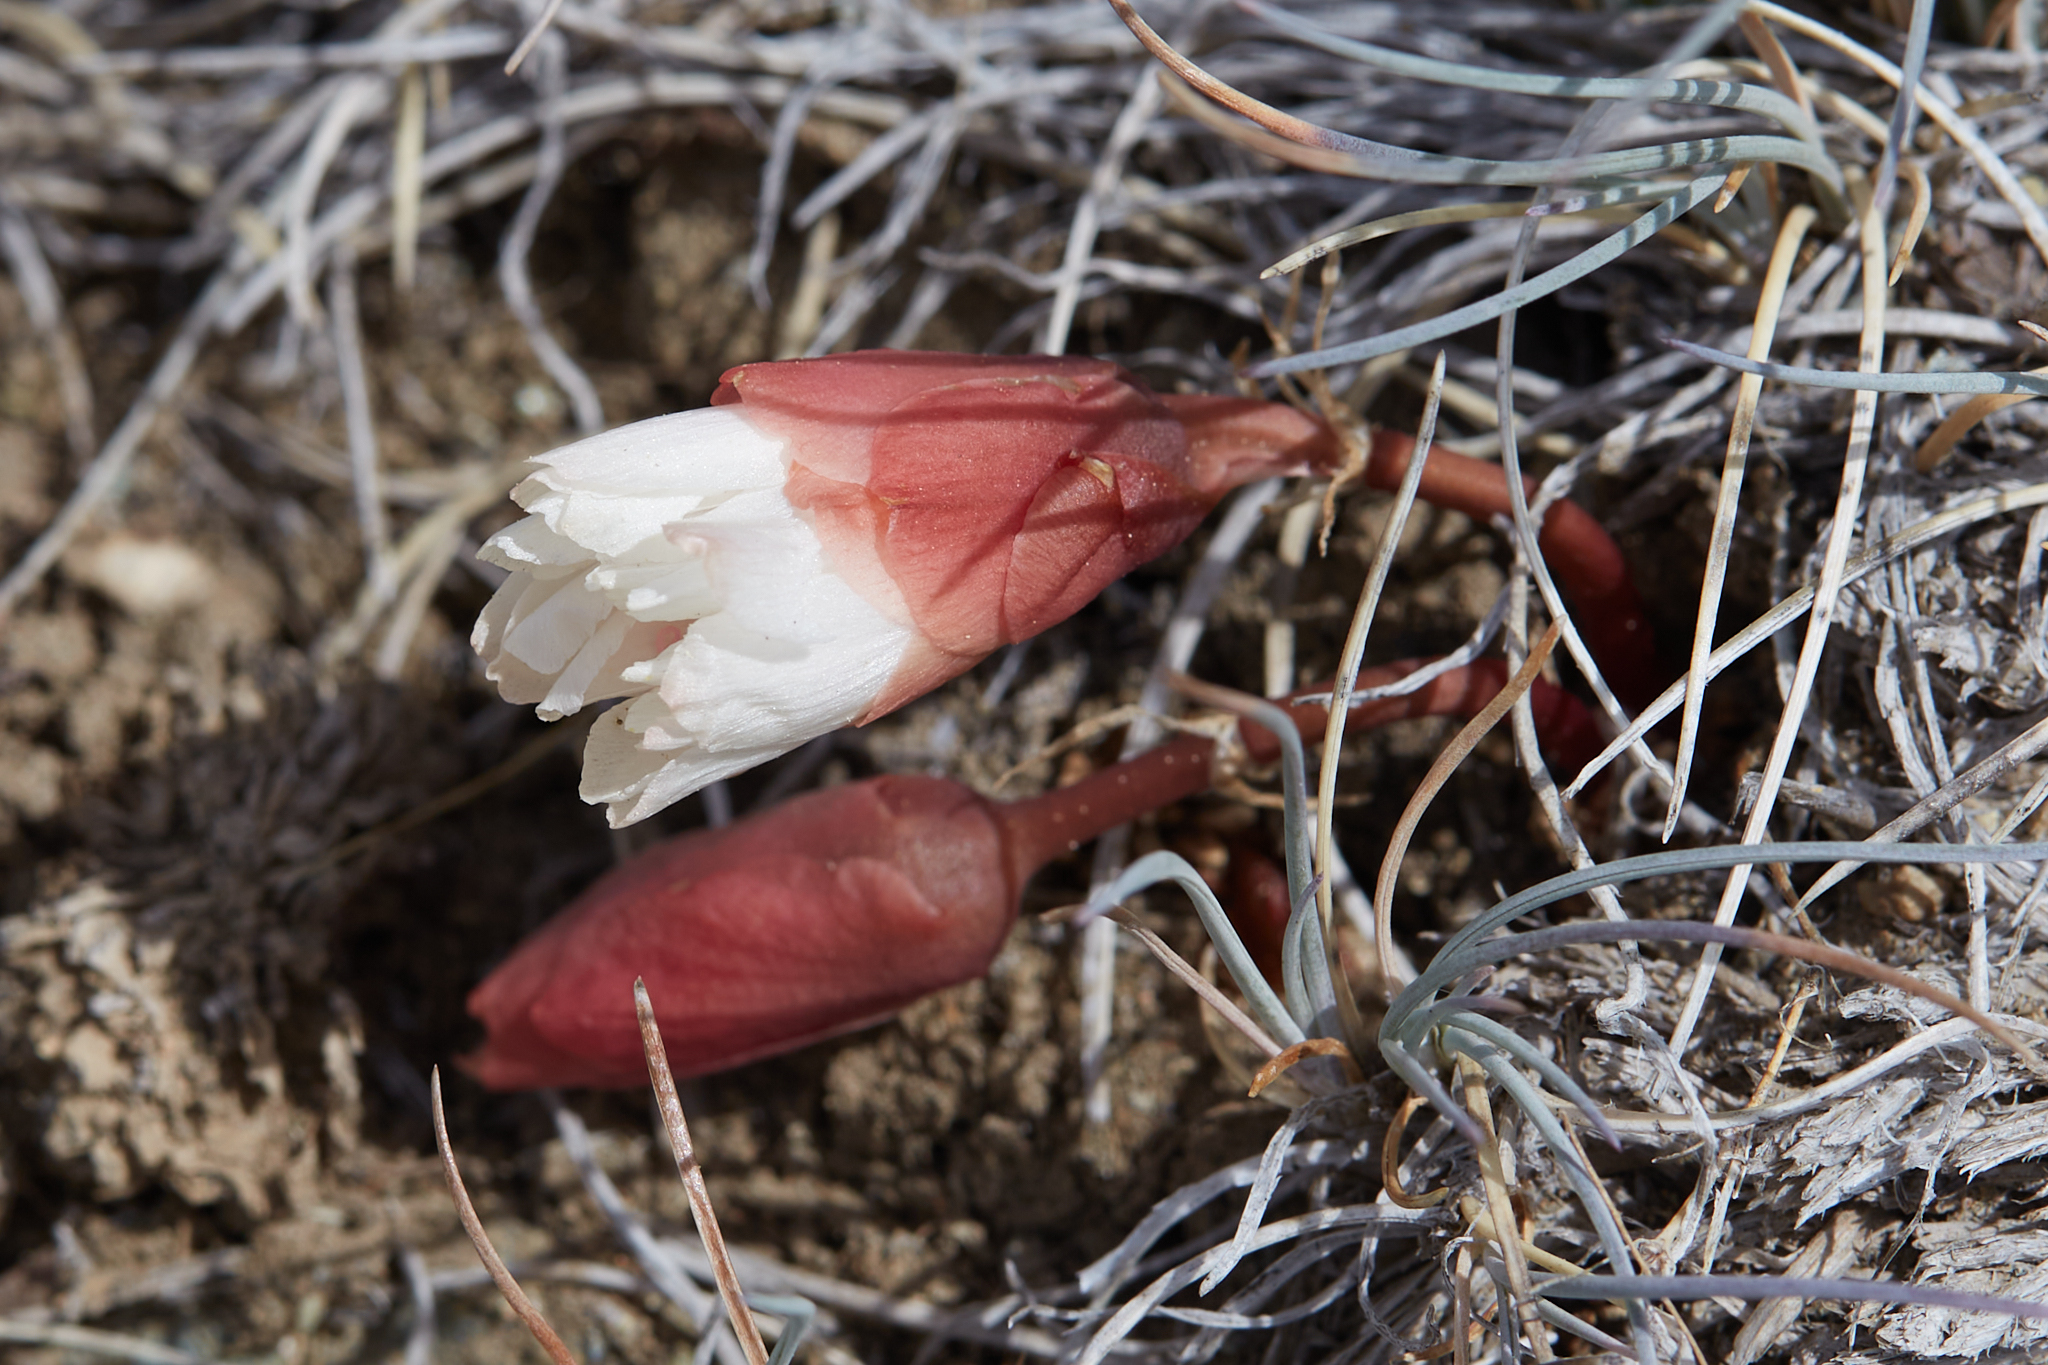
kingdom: Plantae
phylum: Tracheophyta
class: Magnoliopsida
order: Caryophyllales
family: Montiaceae
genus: Lewisia
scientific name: Lewisia rediviva
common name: Bitter-root
